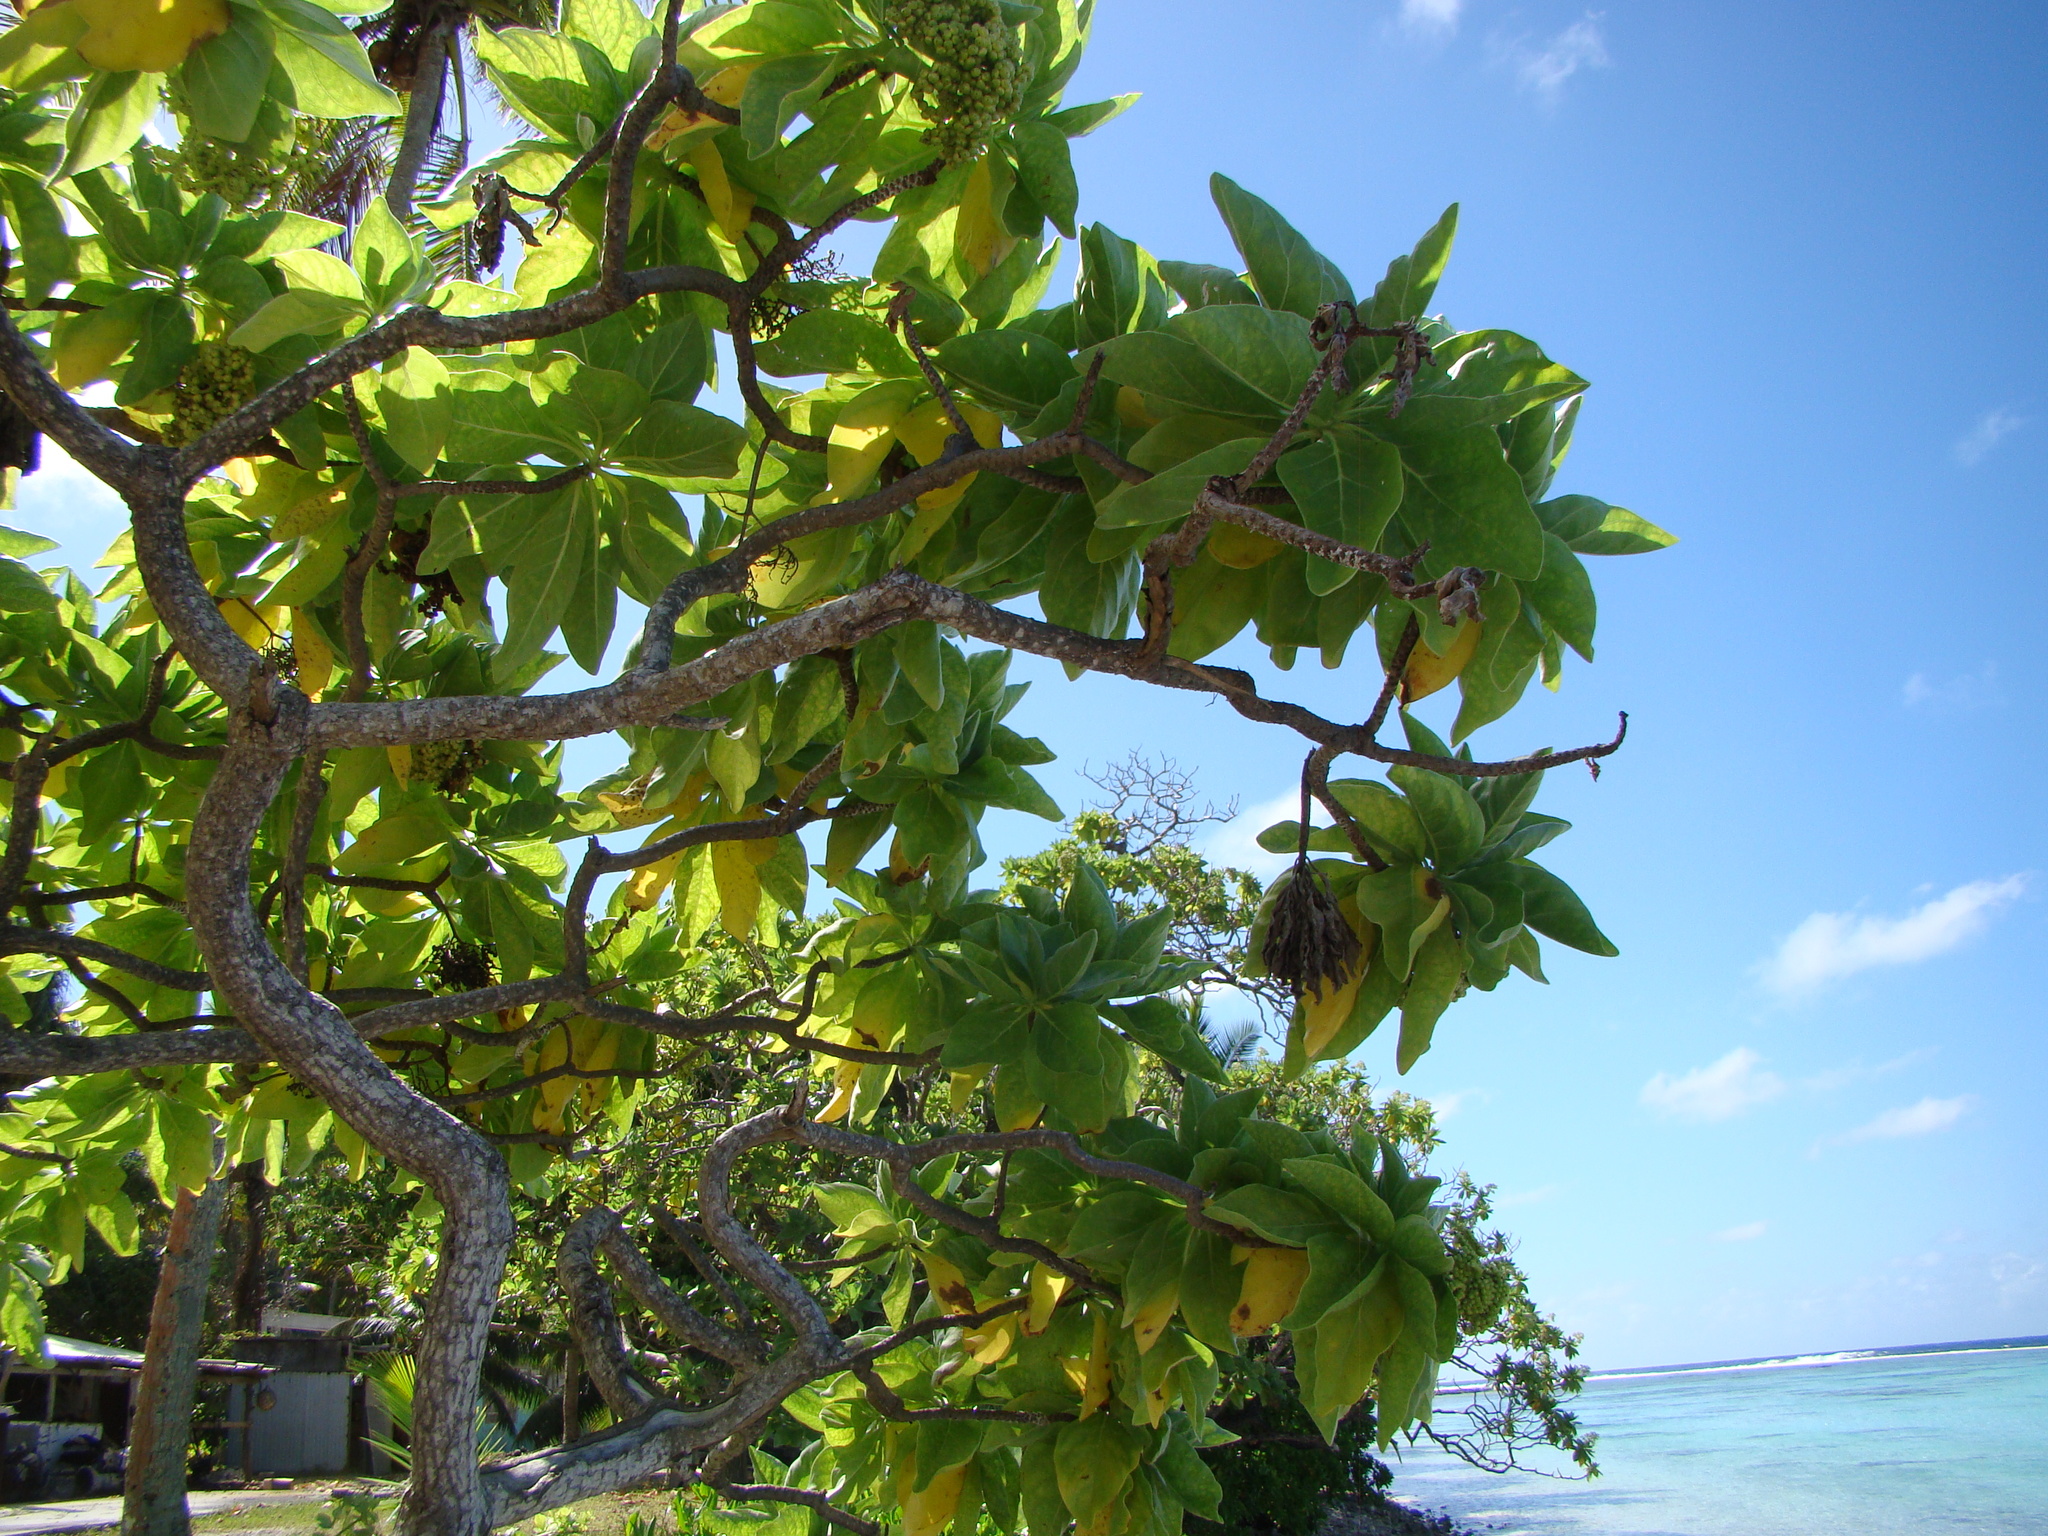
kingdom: Plantae
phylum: Tracheophyta
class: Magnoliopsida
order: Boraginales
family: Heliotropiaceae
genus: Heliotropium
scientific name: Heliotropium velutinum
